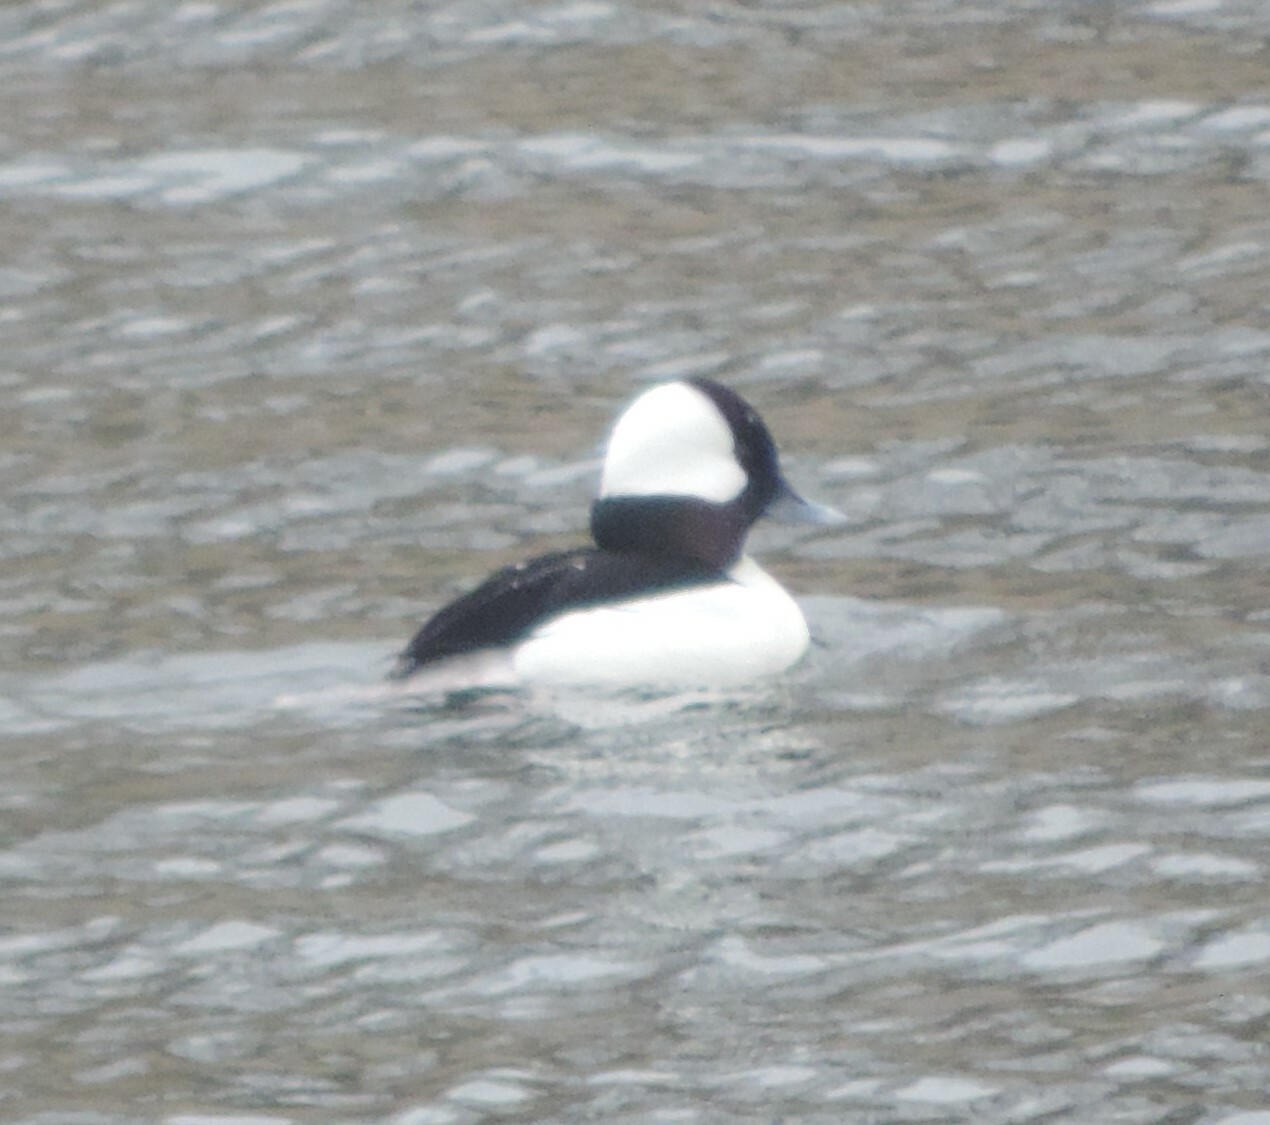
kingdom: Animalia
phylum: Chordata
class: Aves
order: Anseriformes
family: Anatidae
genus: Bucephala
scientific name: Bucephala albeola
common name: Bufflehead
